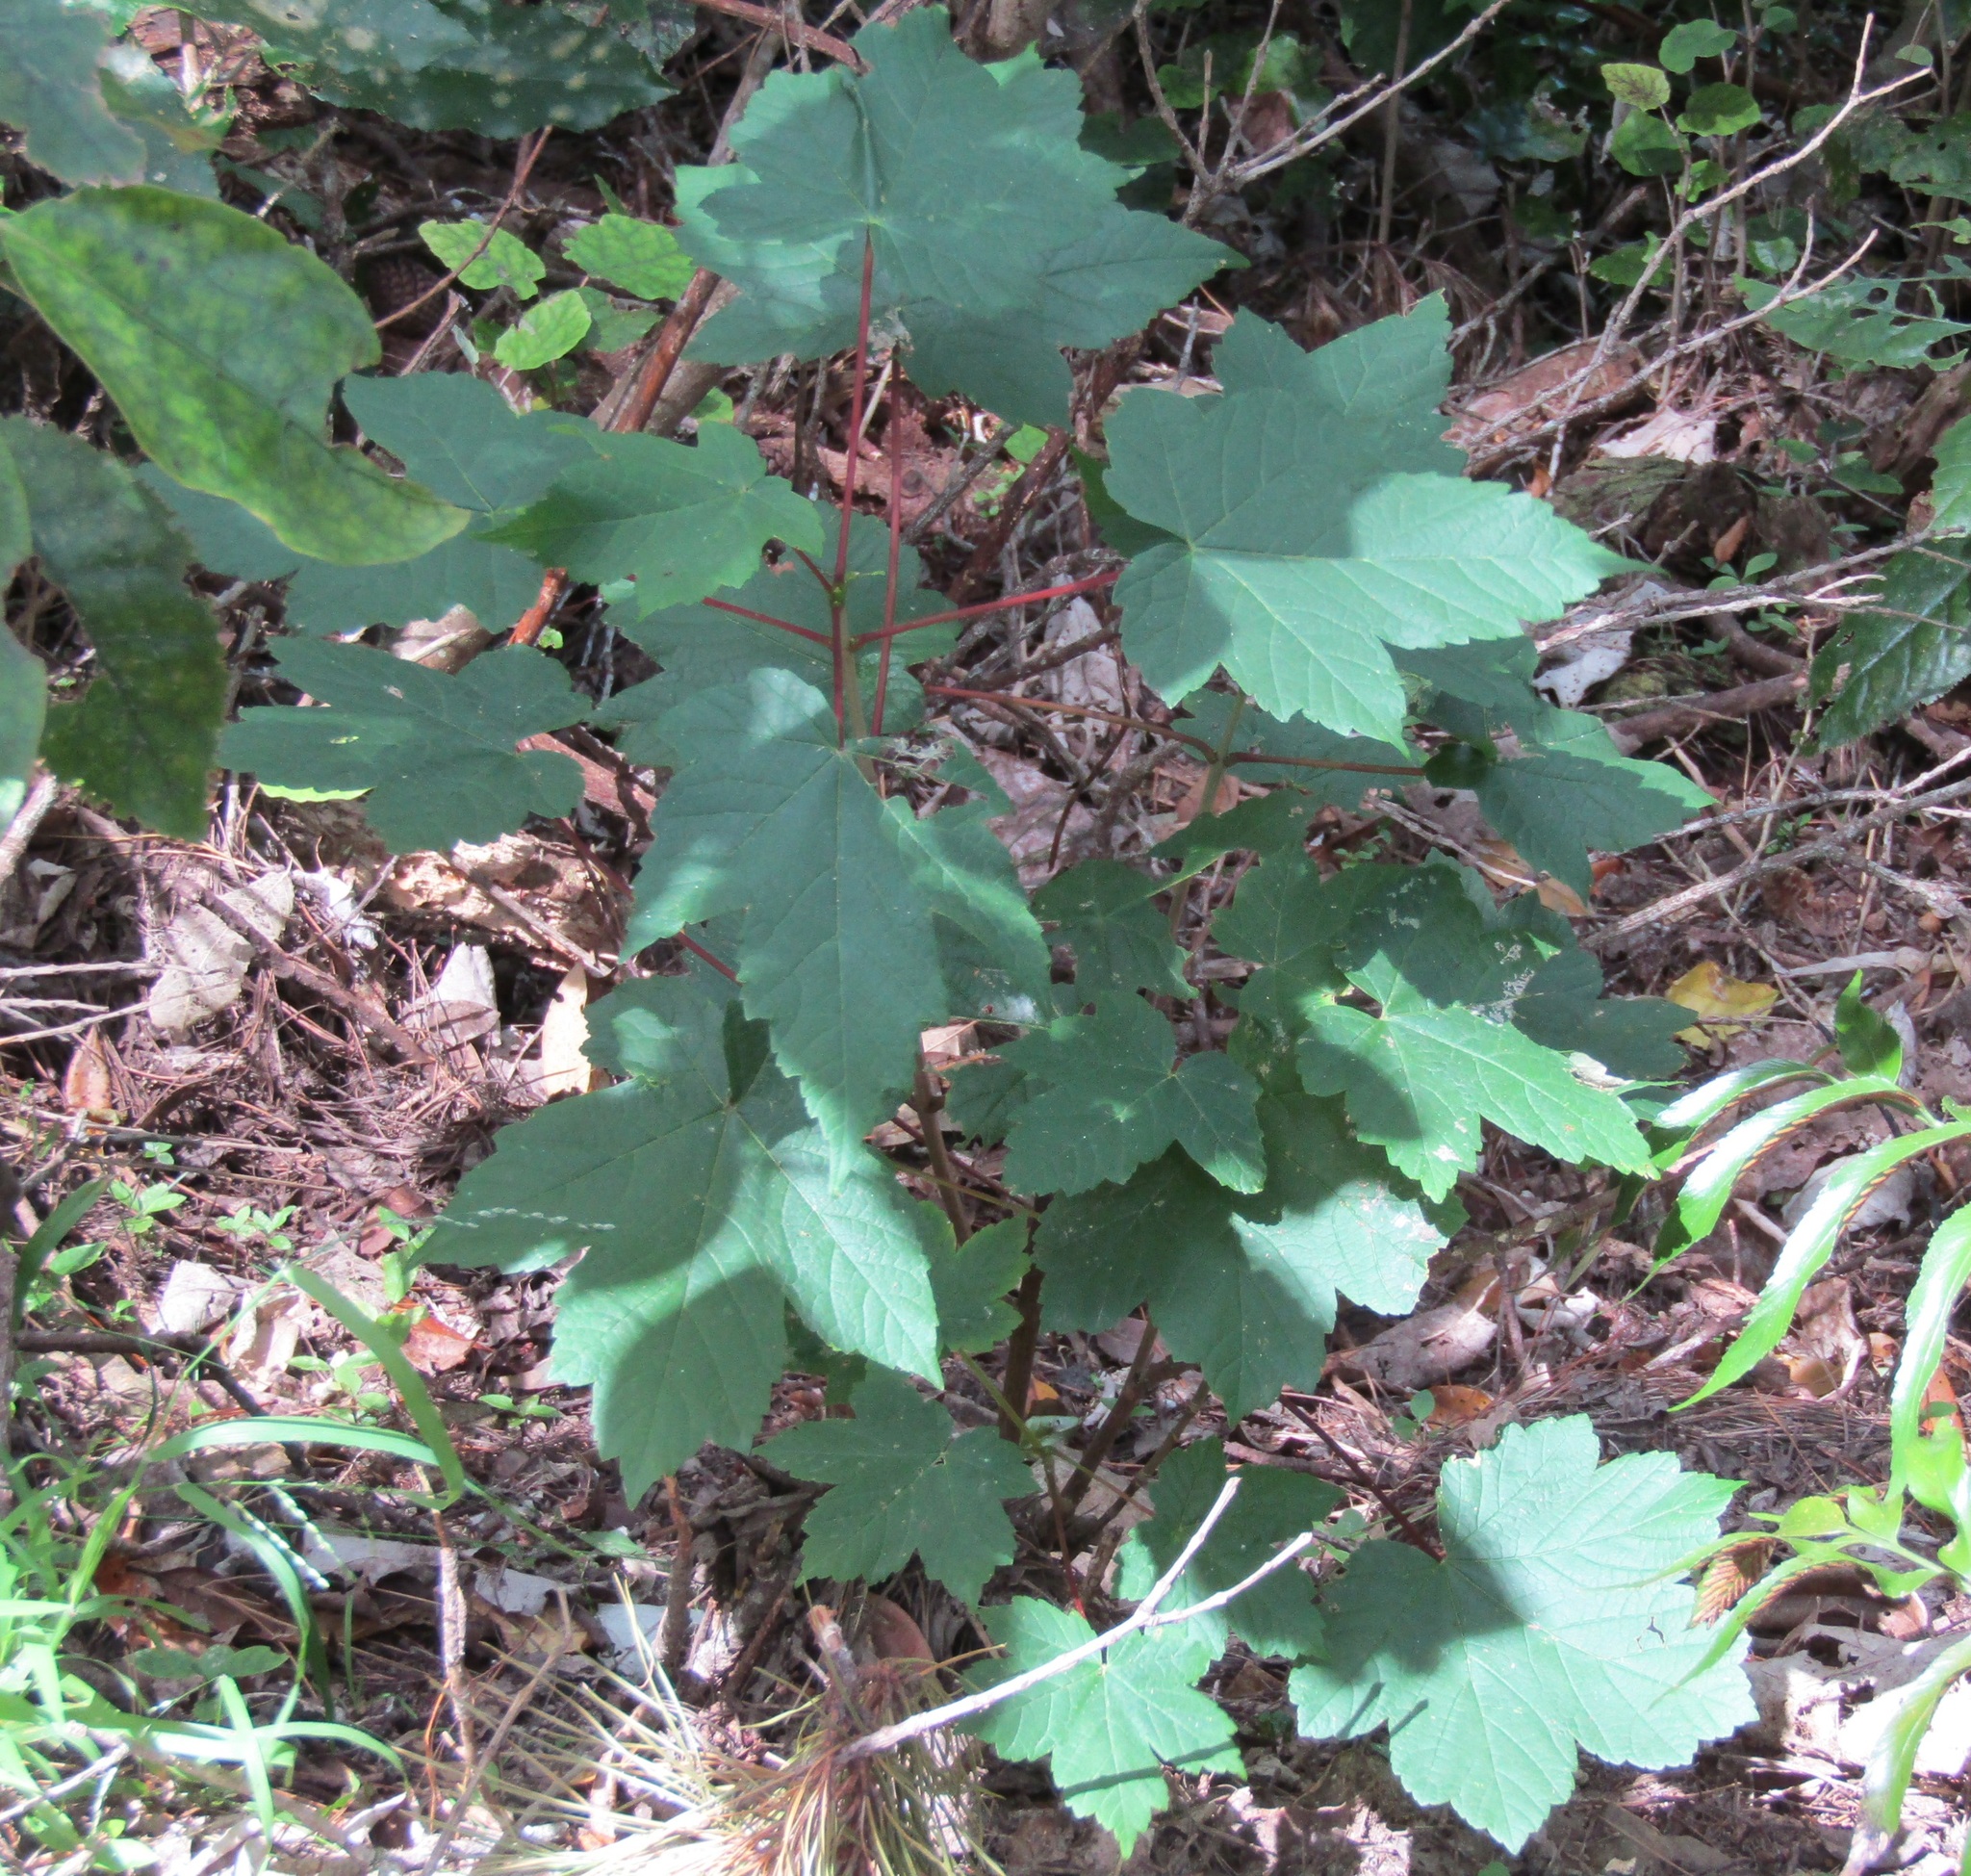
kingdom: Plantae
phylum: Tracheophyta
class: Magnoliopsida
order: Sapindales
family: Sapindaceae
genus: Acer
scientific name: Acer pseudoplatanus
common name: Sycamore
